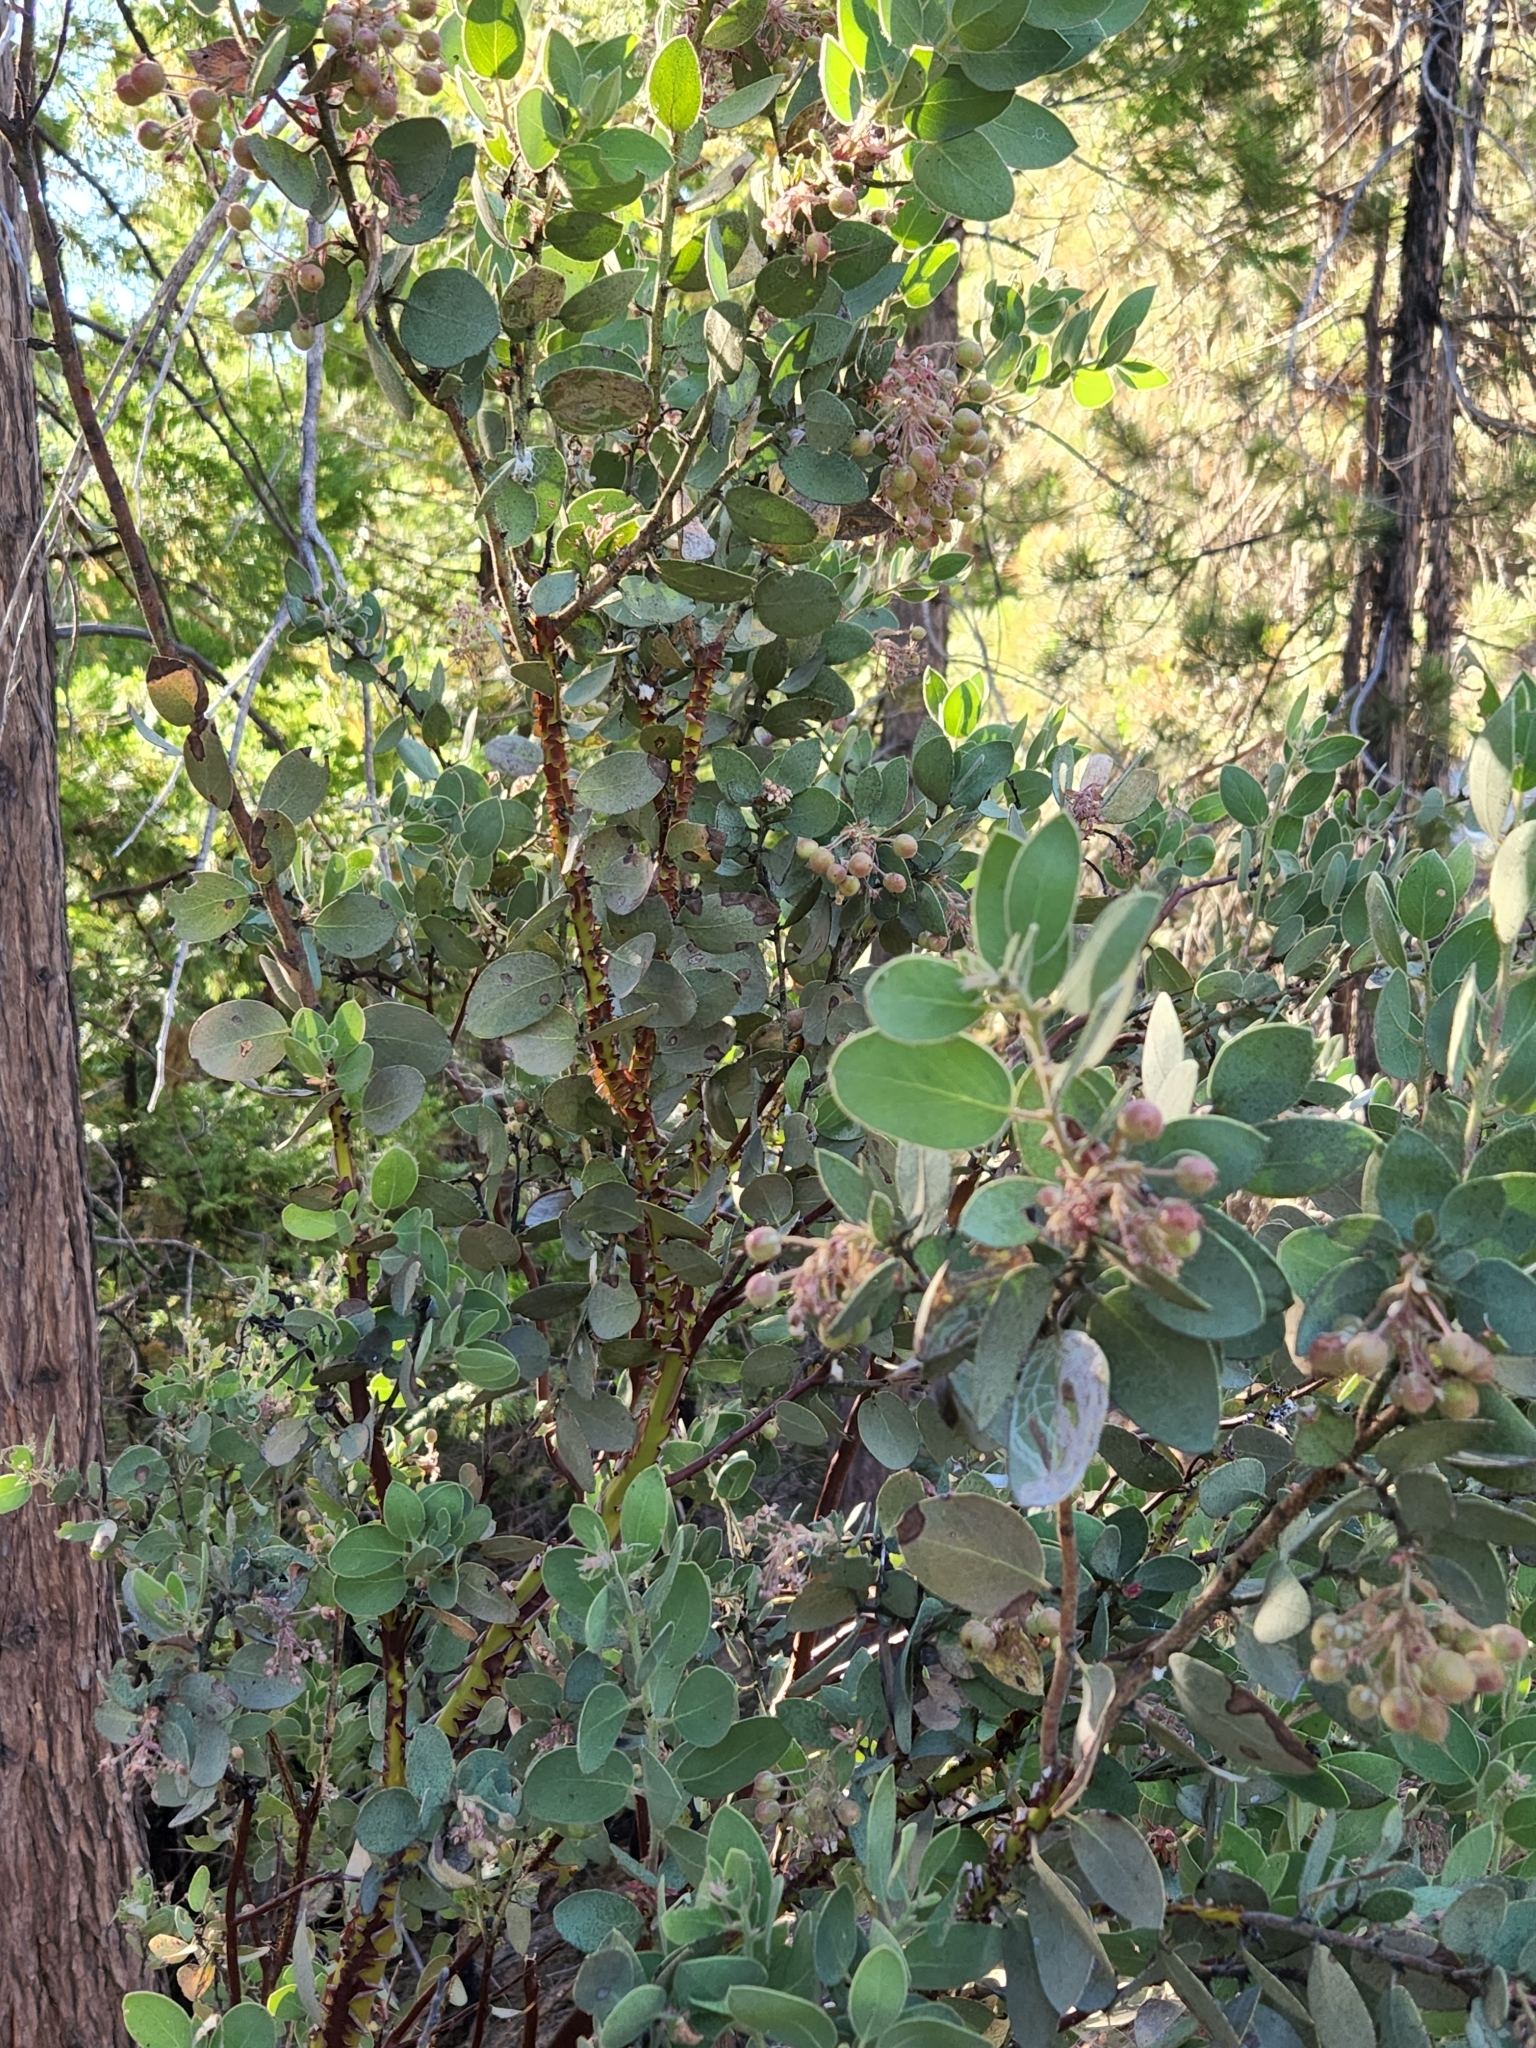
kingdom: Plantae
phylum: Tracheophyta
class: Magnoliopsida
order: Ericales
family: Ericaceae
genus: Arctostaphylos
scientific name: Arctostaphylos pringlei
